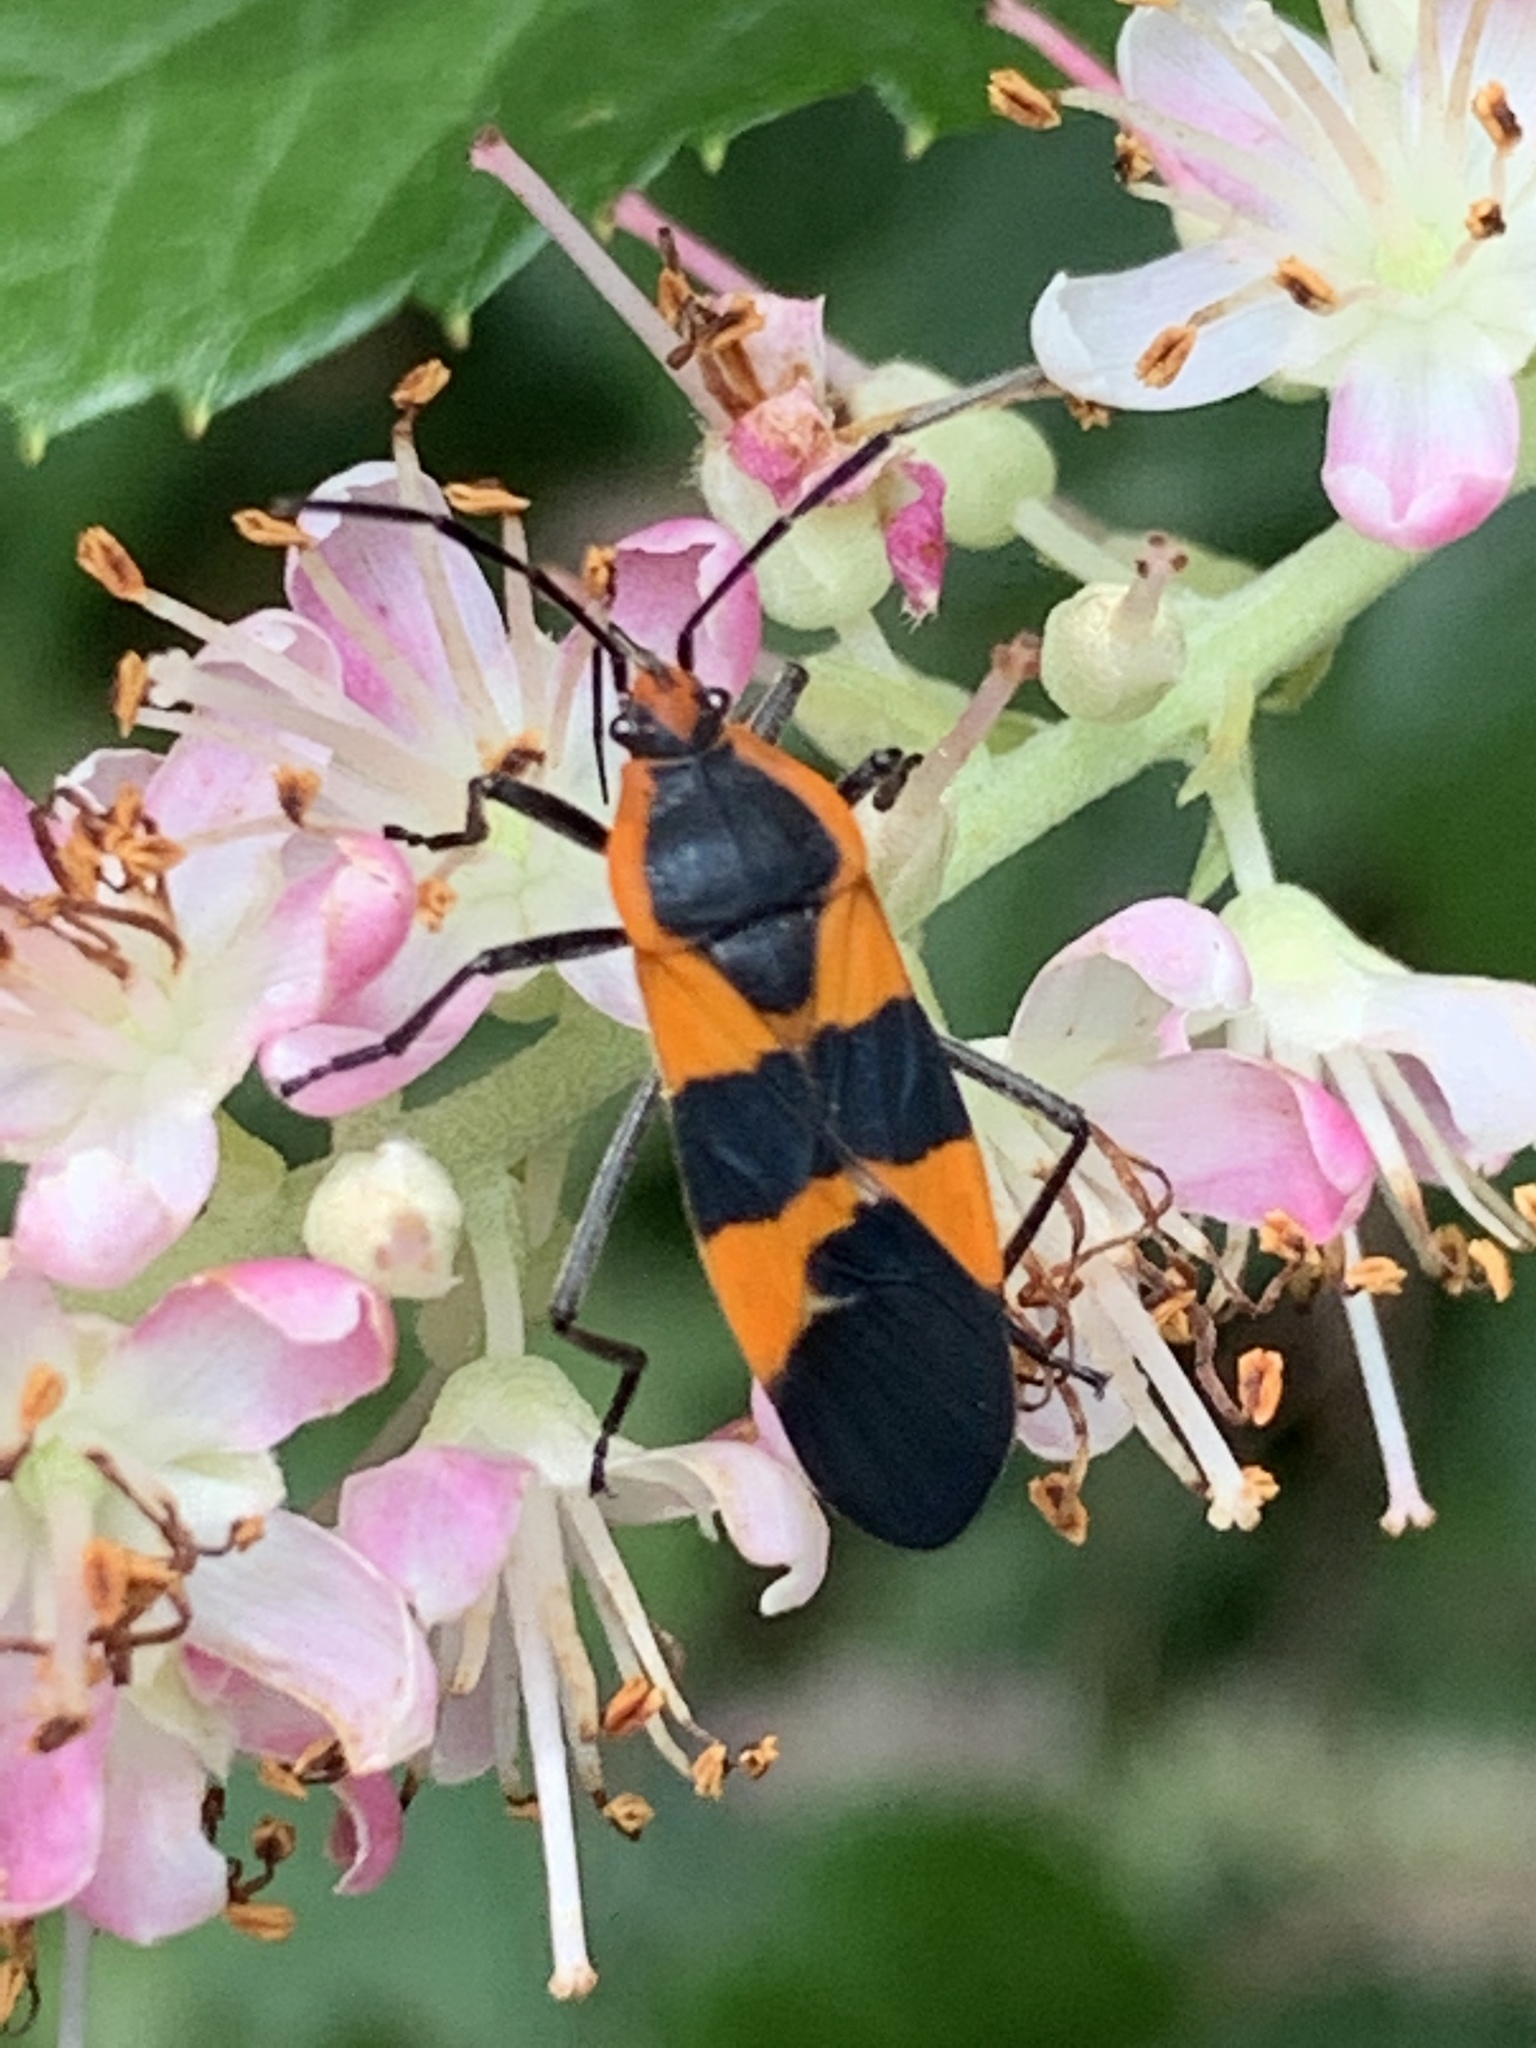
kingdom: Animalia
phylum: Arthropoda
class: Insecta
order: Hemiptera
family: Lygaeidae
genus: Oncopeltus
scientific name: Oncopeltus fasciatus
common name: Large milkweed bug
